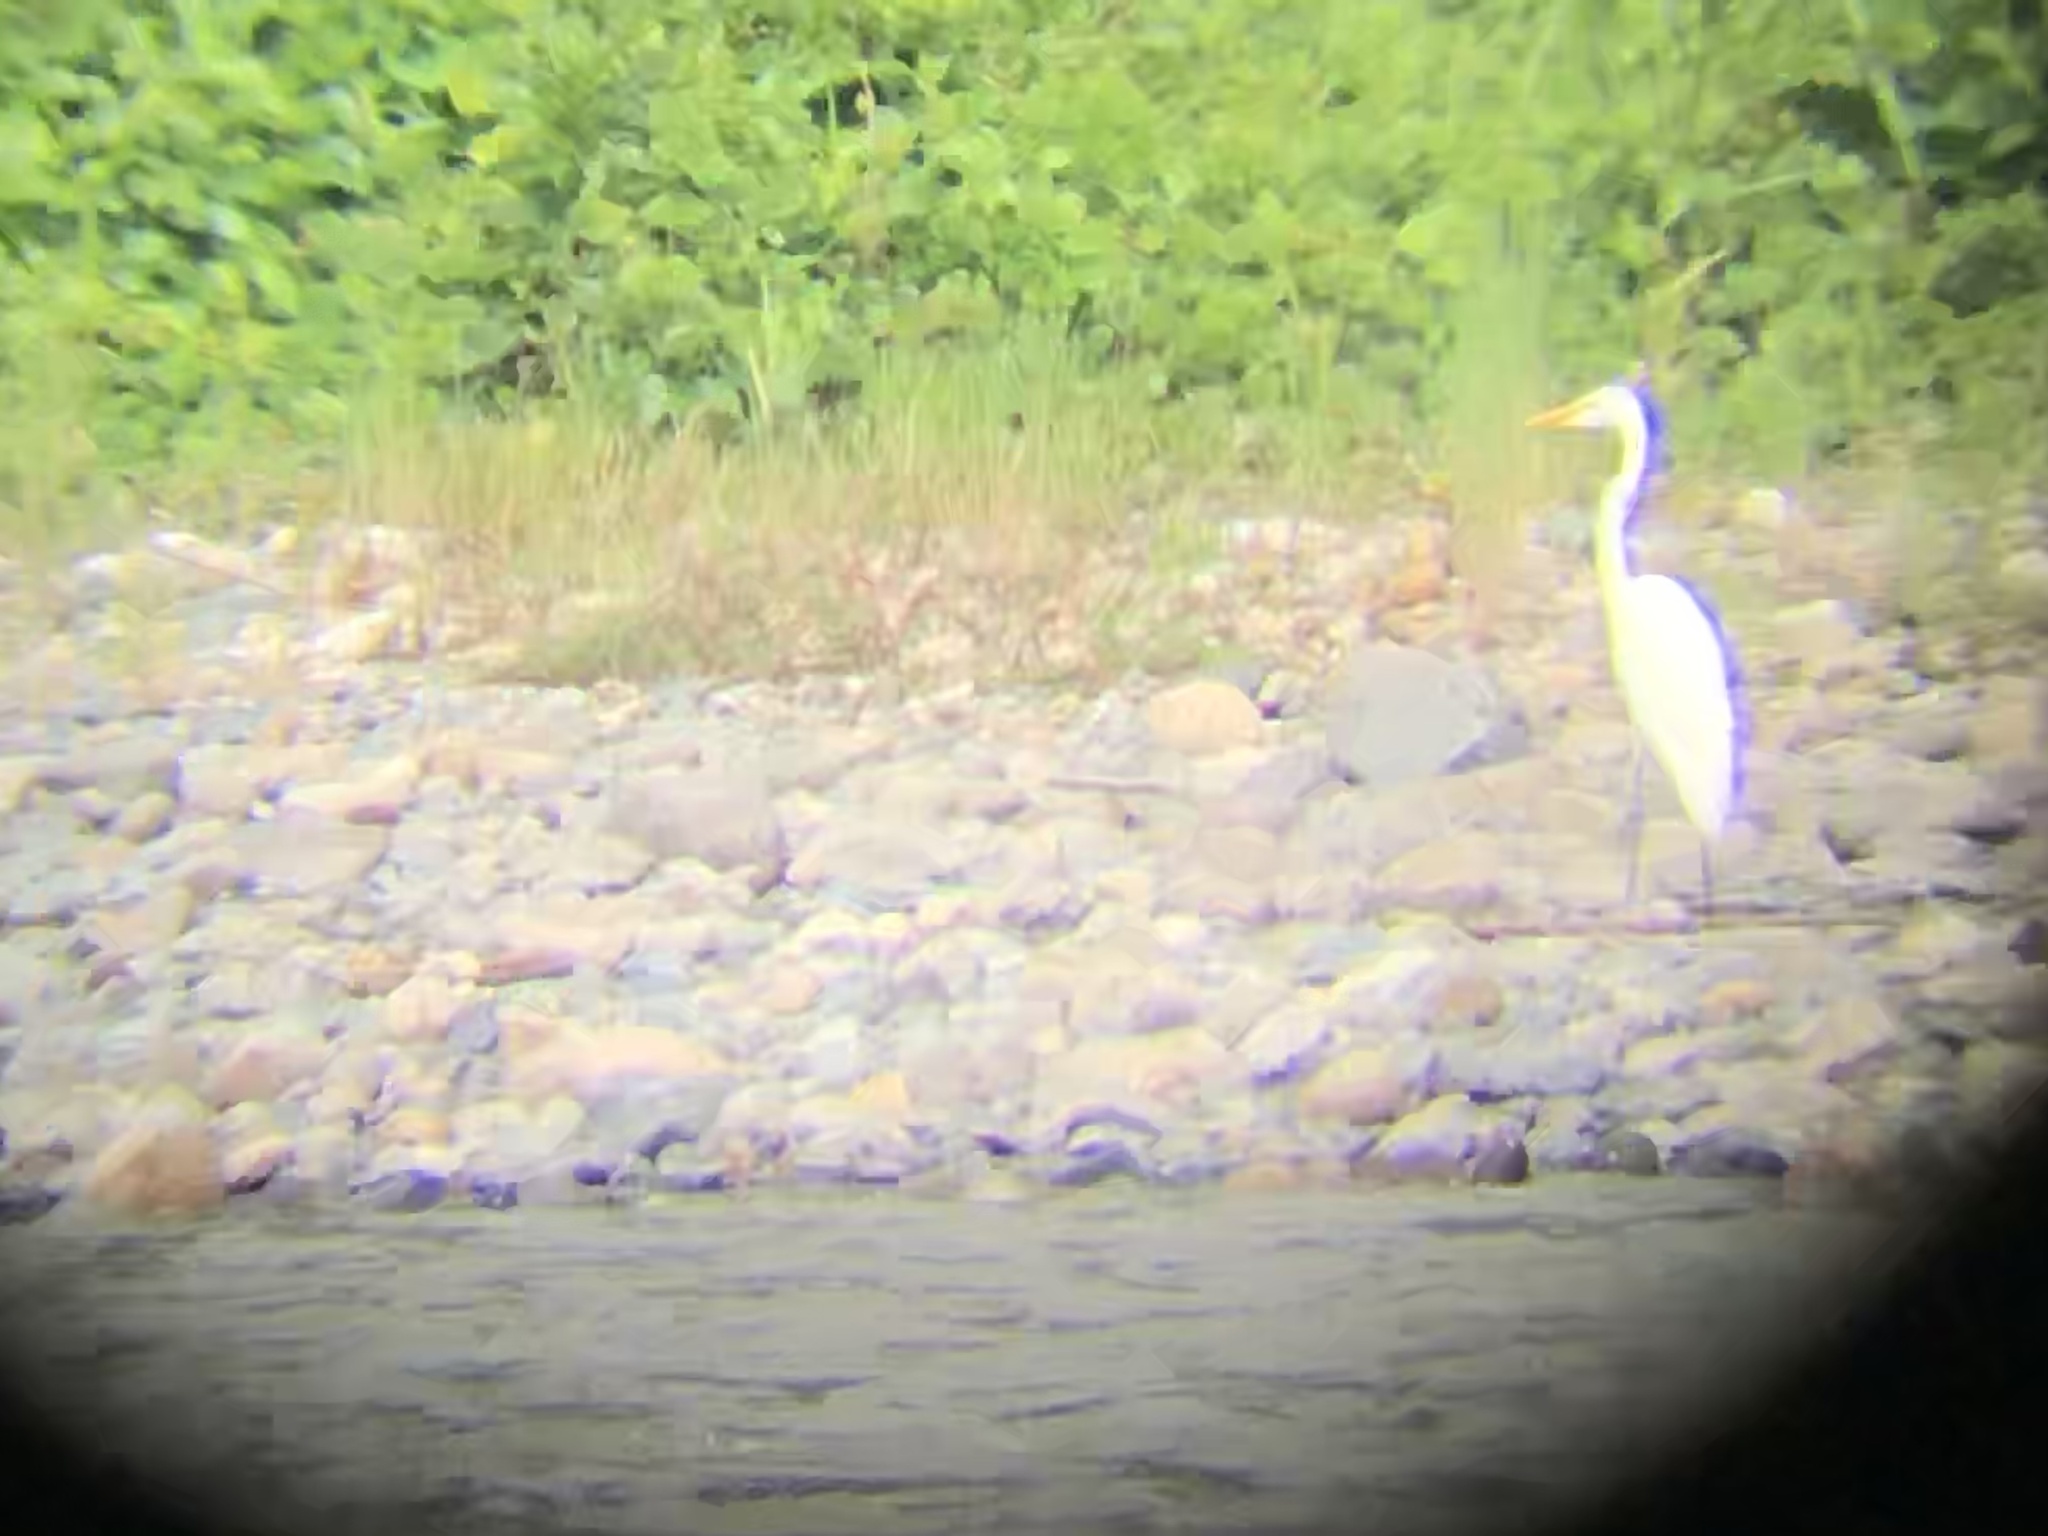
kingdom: Animalia
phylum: Chordata
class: Aves
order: Pelecaniformes
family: Ardeidae
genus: Ardea
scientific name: Ardea alba
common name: Great egret
